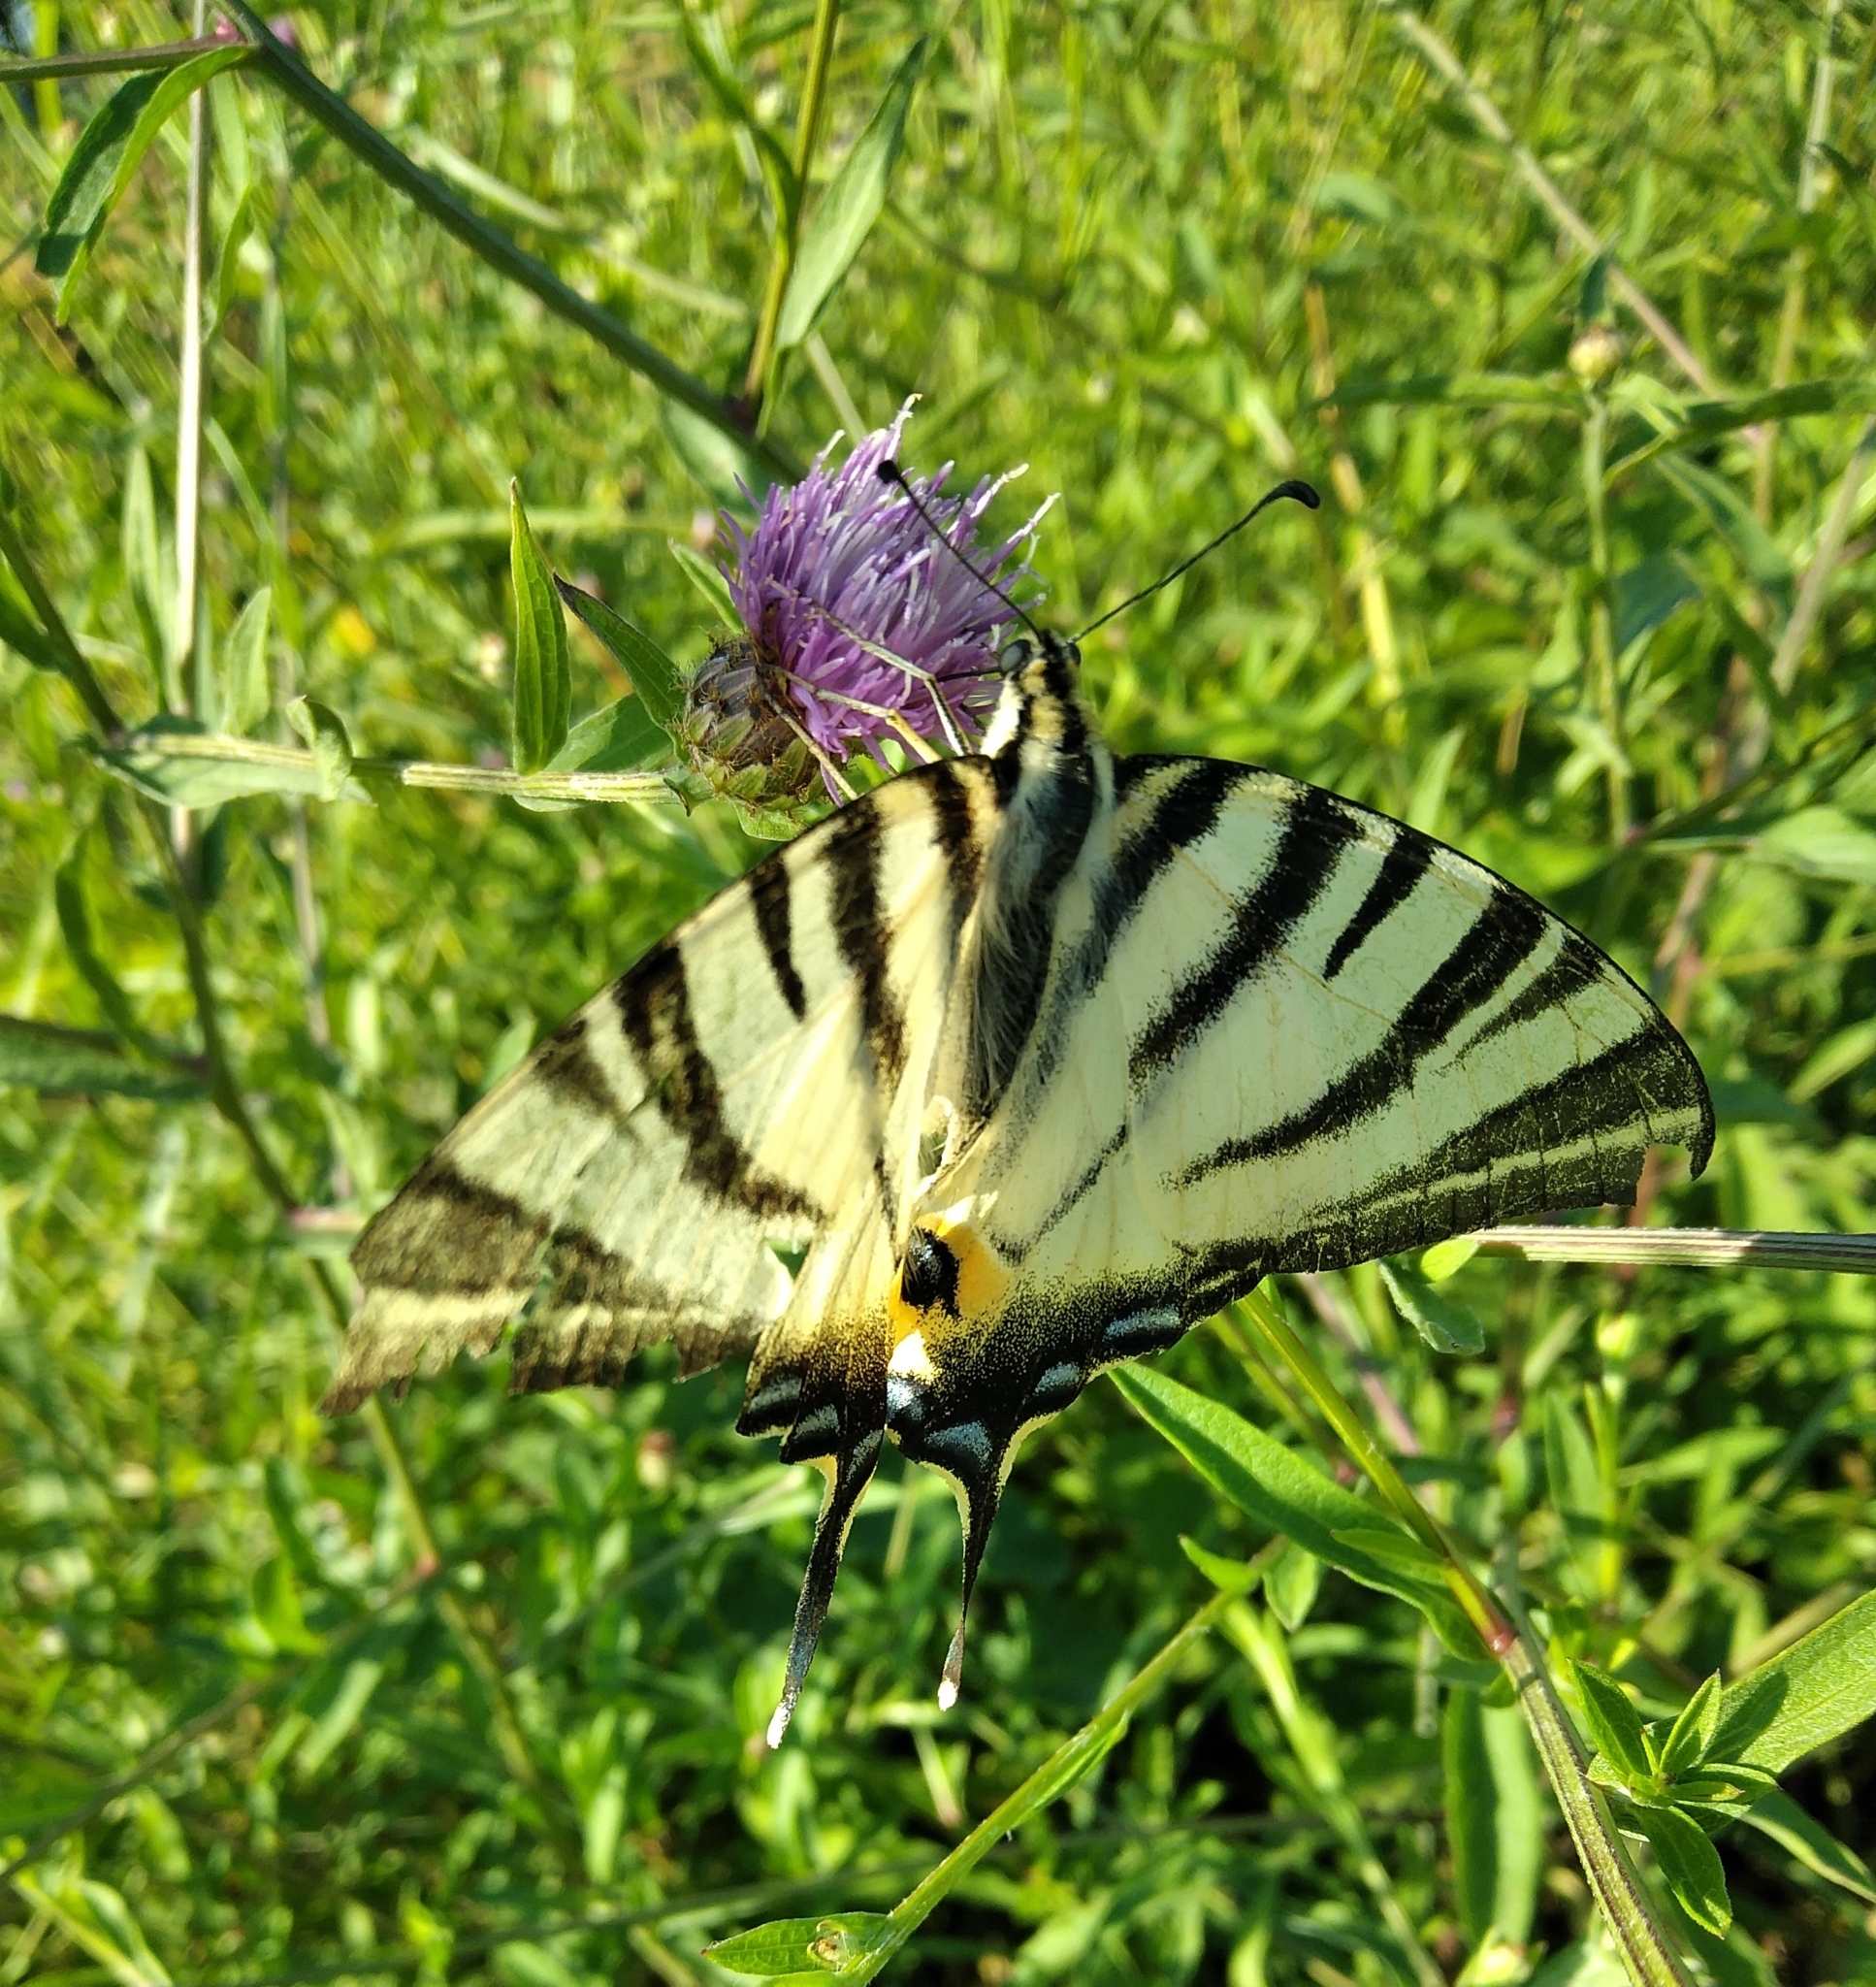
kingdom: Animalia
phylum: Arthropoda
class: Insecta
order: Lepidoptera
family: Papilionidae
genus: Iphiclides
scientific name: Iphiclides podalirius
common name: Scarce swallowtail
